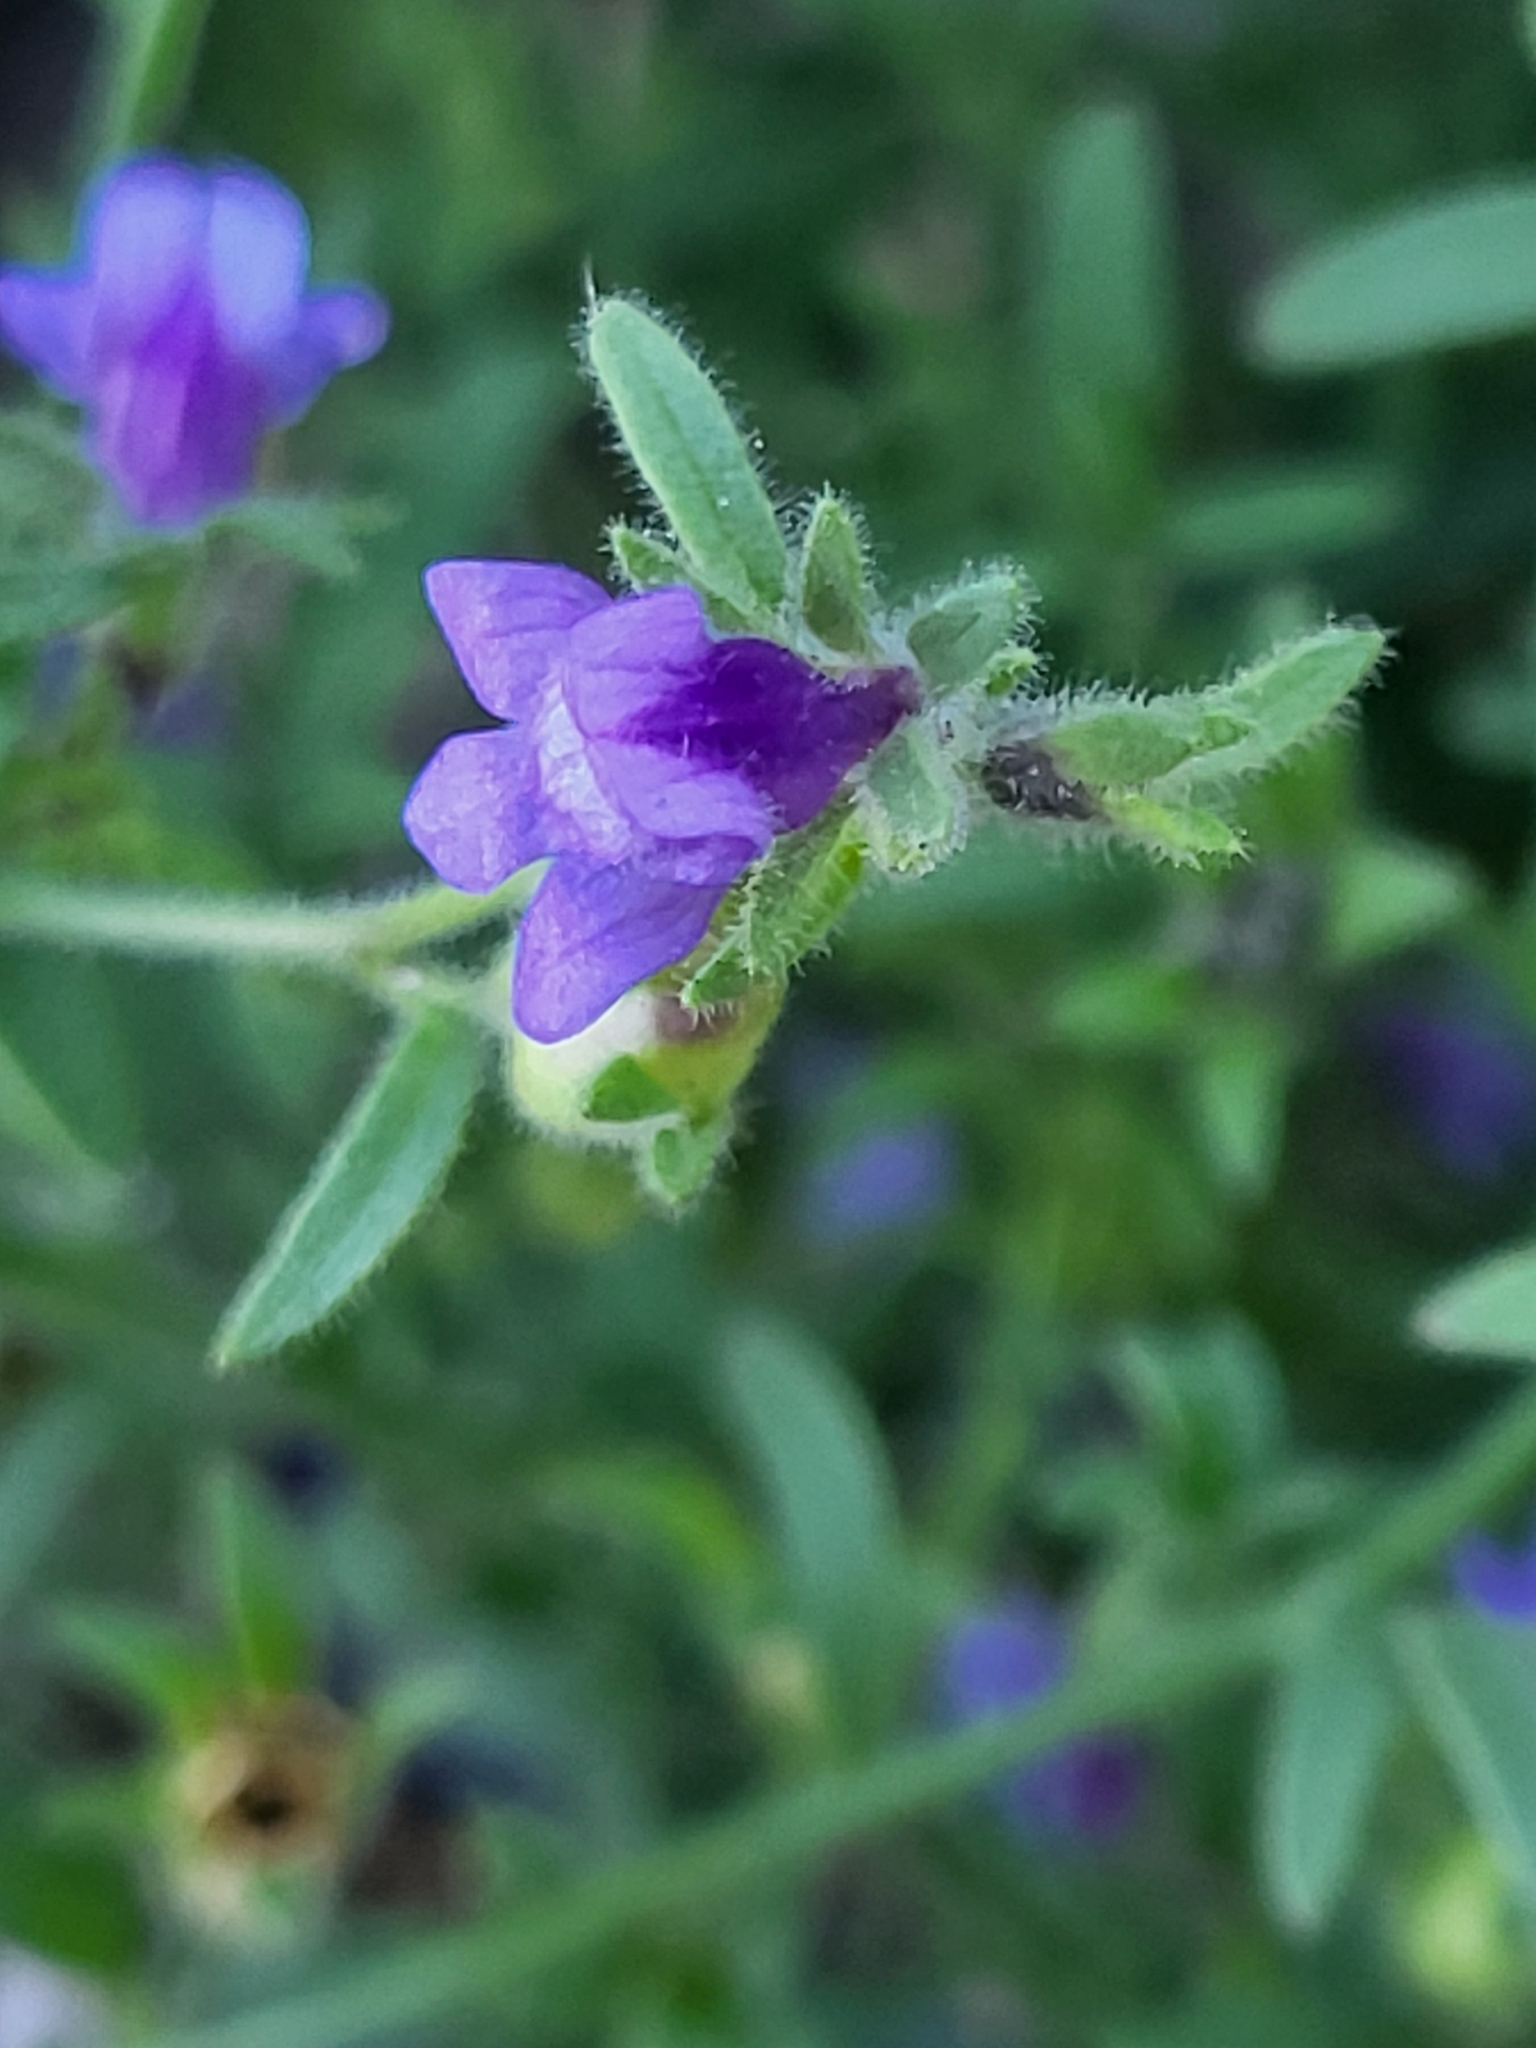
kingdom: Plantae
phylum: Tracheophyta
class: Magnoliopsida
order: Lamiales
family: Plantaginaceae
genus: Chaenorhinum
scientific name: Chaenorhinum litorale
